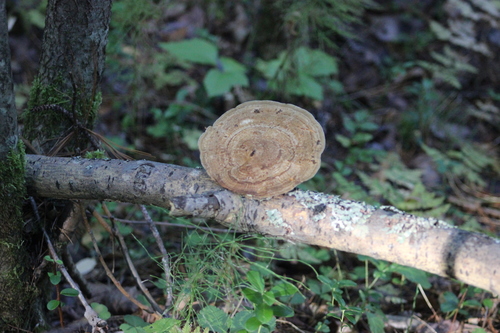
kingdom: Fungi
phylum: Basidiomycota
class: Agaricomycetes
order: Polyporales
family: Polyporaceae
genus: Daedaleopsis
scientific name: Daedaleopsis confragosa
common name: Blushing bracket
